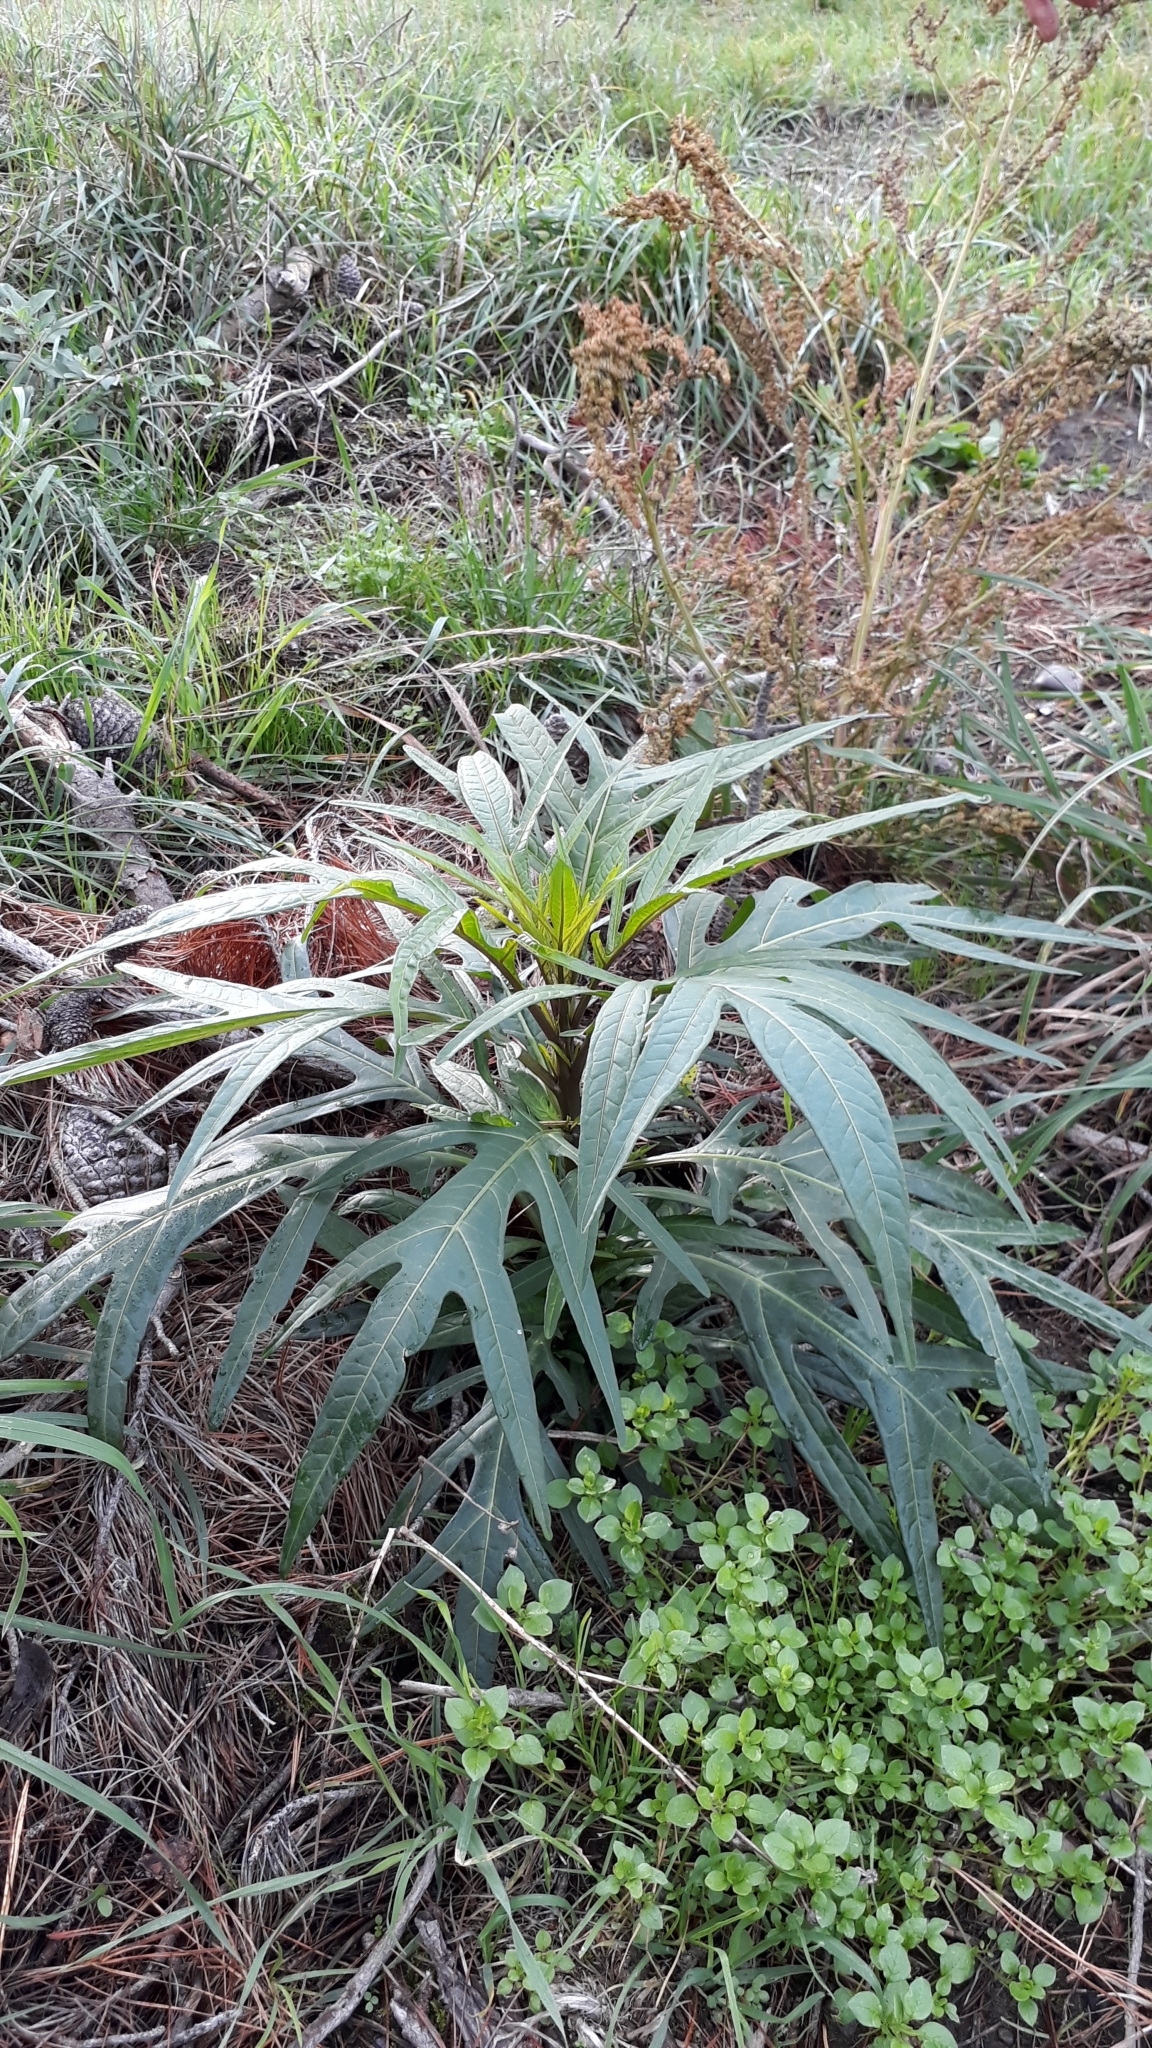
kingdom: Plantae
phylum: Tracheophyta
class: Magnoliopsida
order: Solanales
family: Solanaceae
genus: Solanum
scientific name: Solanum laciniatum
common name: Kangaroo-apple
